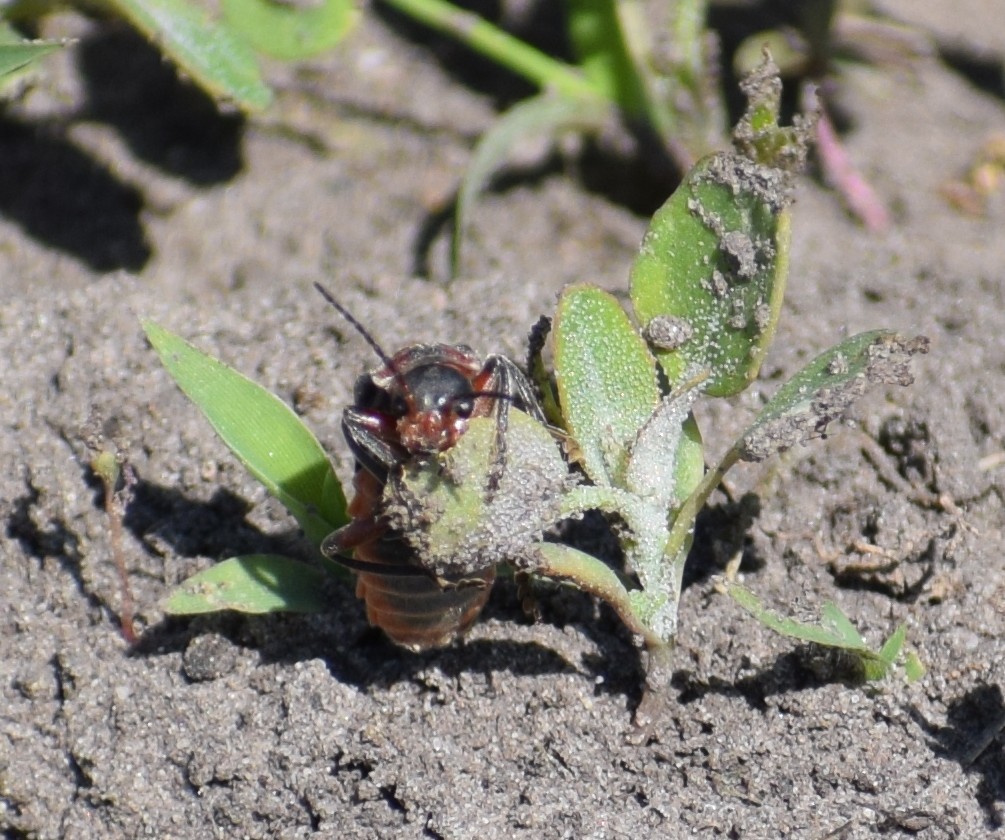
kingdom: Animalia
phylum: Arthropoda
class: Insecta
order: Coleoptera
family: Cantharidae
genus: Cantharis
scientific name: Cantharis rustica
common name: Soldier beetle
